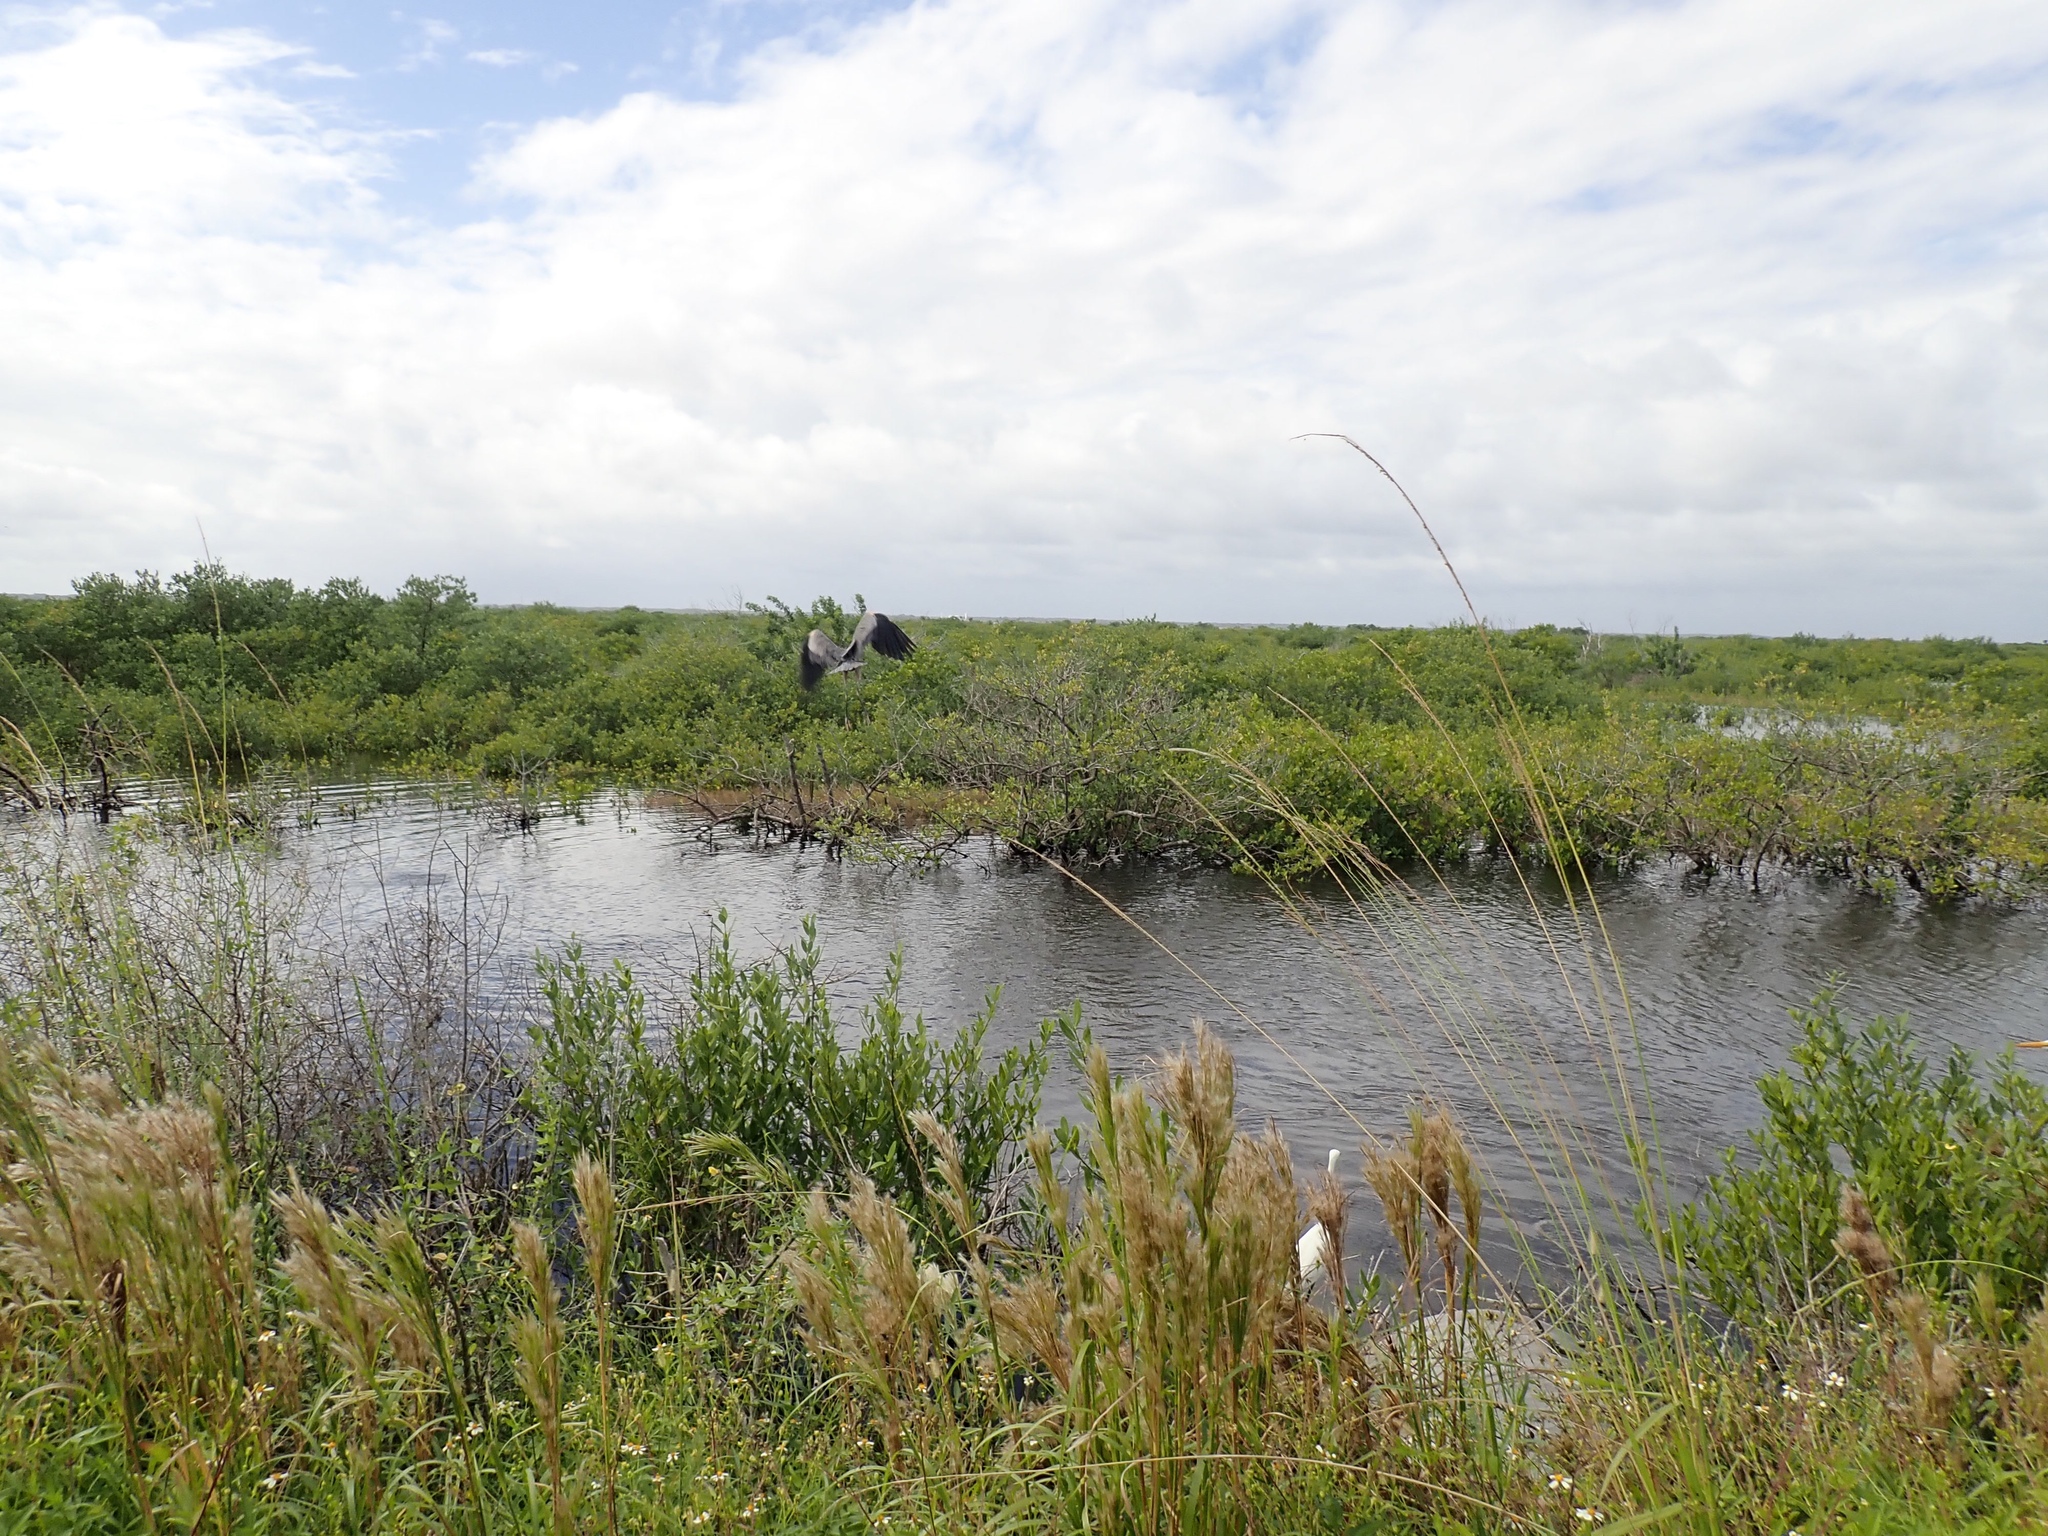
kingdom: Animalia
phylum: Chordata
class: Aves
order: Pelecaniformes
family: Ardeidae
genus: Ardea
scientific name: Ardea herodias
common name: Great blue heron
